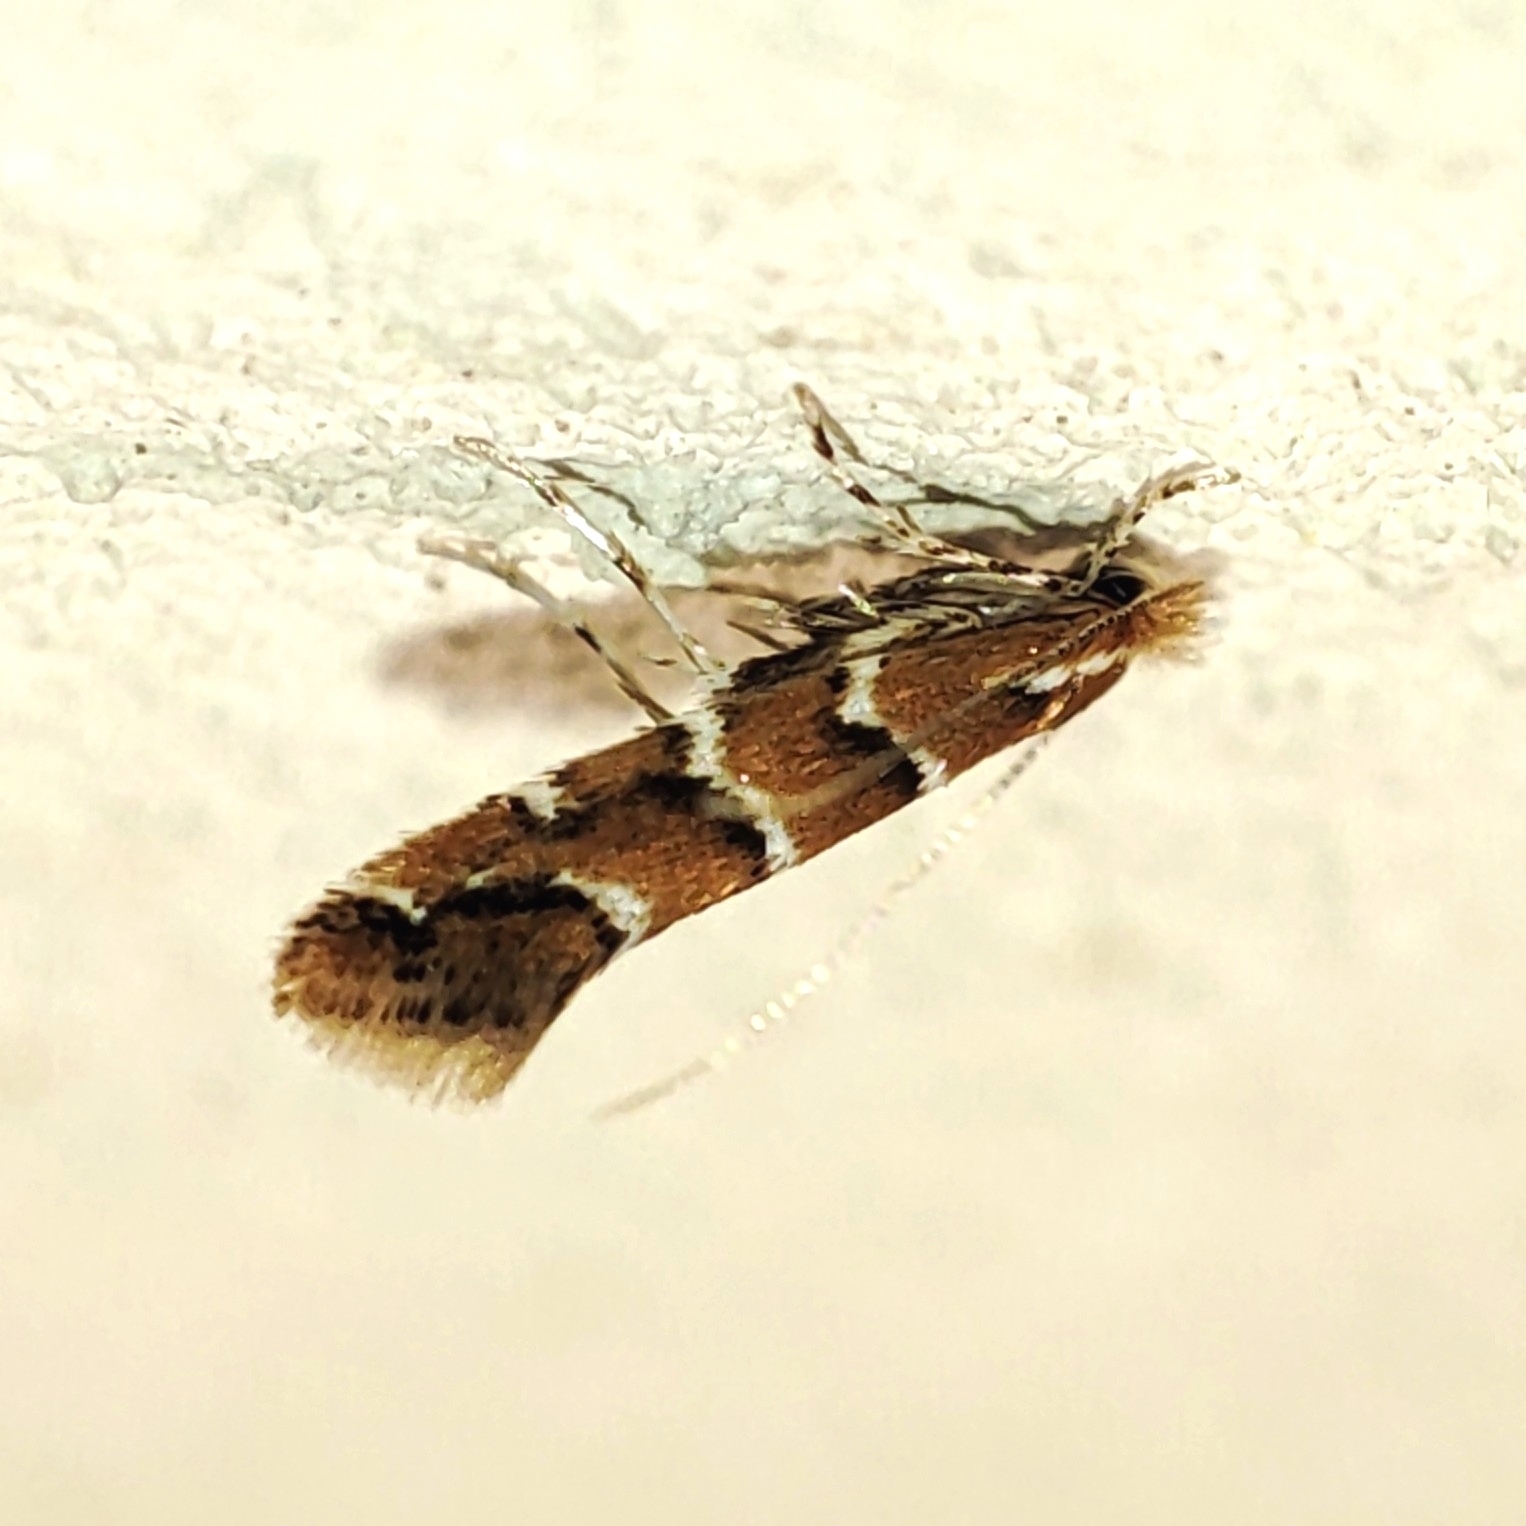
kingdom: Animalia
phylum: Arthropoda
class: Insecta
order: Lepidoptera
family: Gracillariidae
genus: Cameraria
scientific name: Cameraria ohridella
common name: Horse-chestnut leaf-miner
